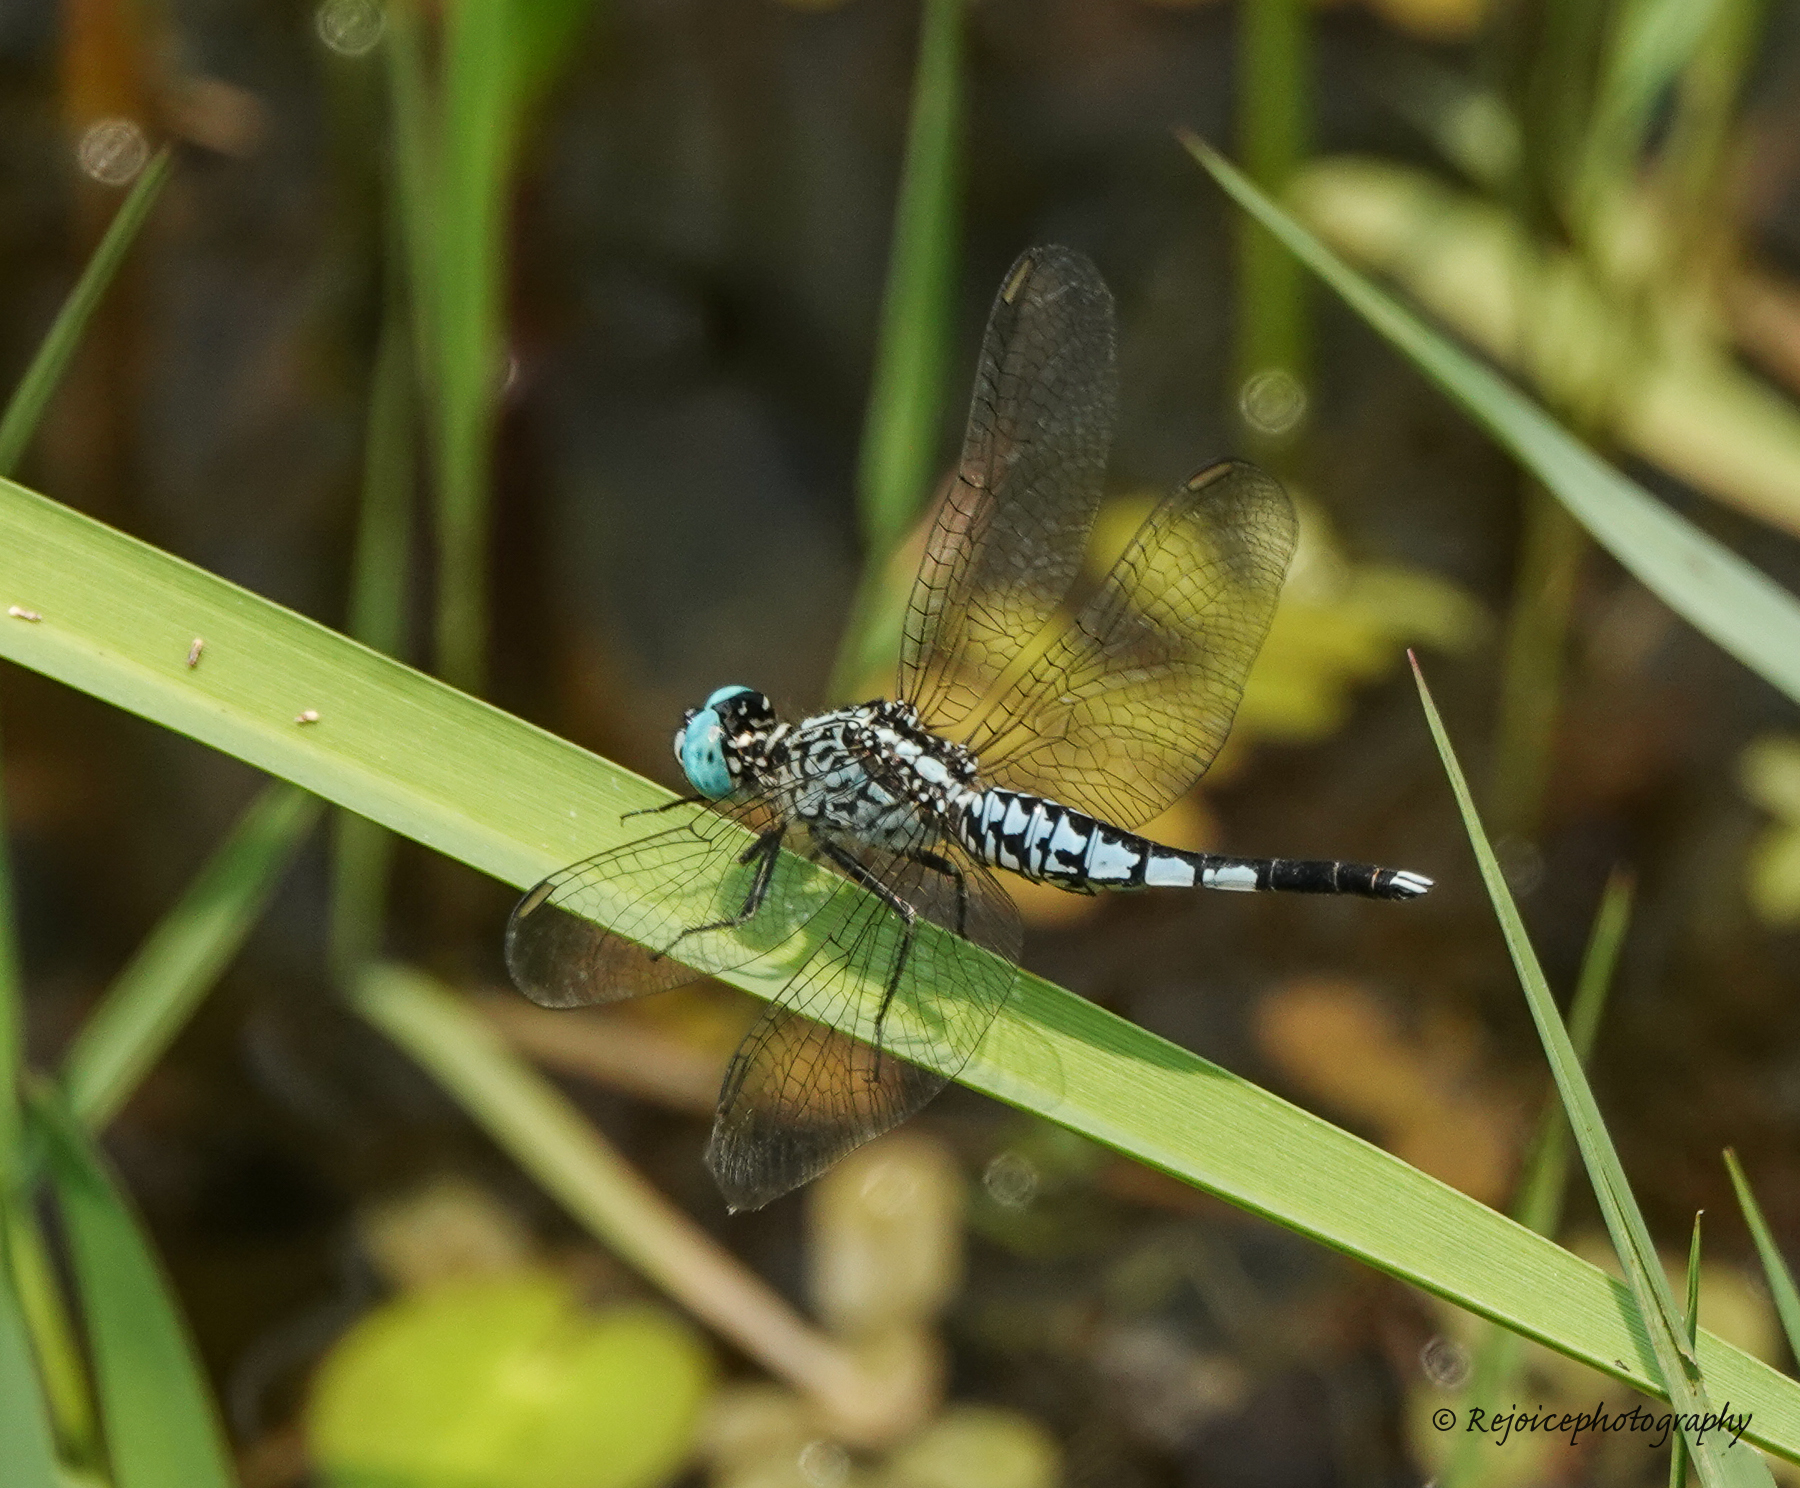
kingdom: Animalia
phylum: Arthropoda
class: Insecta
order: Odonata
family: Libellulidae
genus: Acisoma
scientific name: Acisoma panorpoides
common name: Asian pintail
